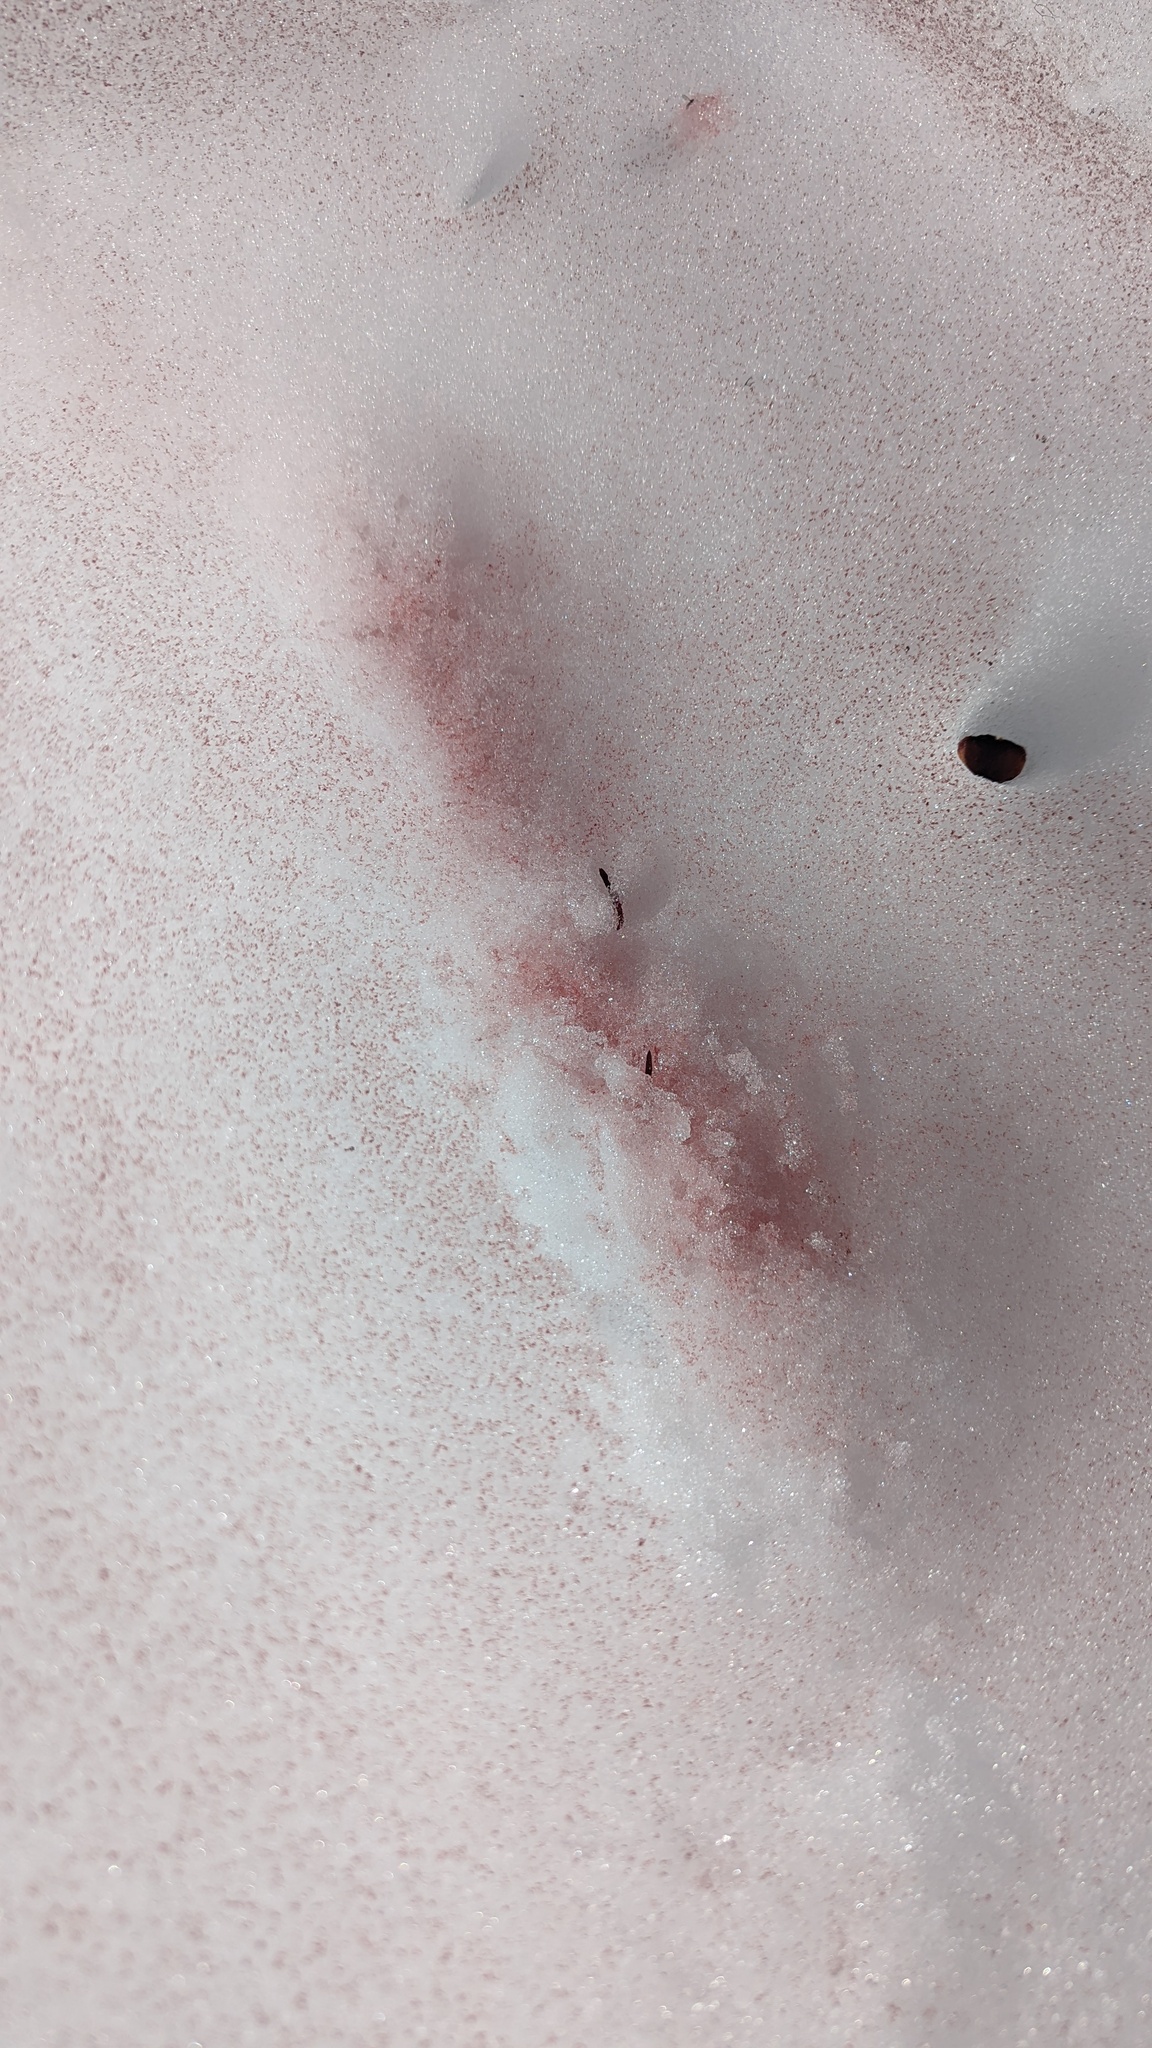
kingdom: Plantae
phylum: Chlorophyta
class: Chlorophyceae
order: Volvocales
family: Chlamydomonadaceae
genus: Chlamydomonas
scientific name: Chlamydomonas nivalis
